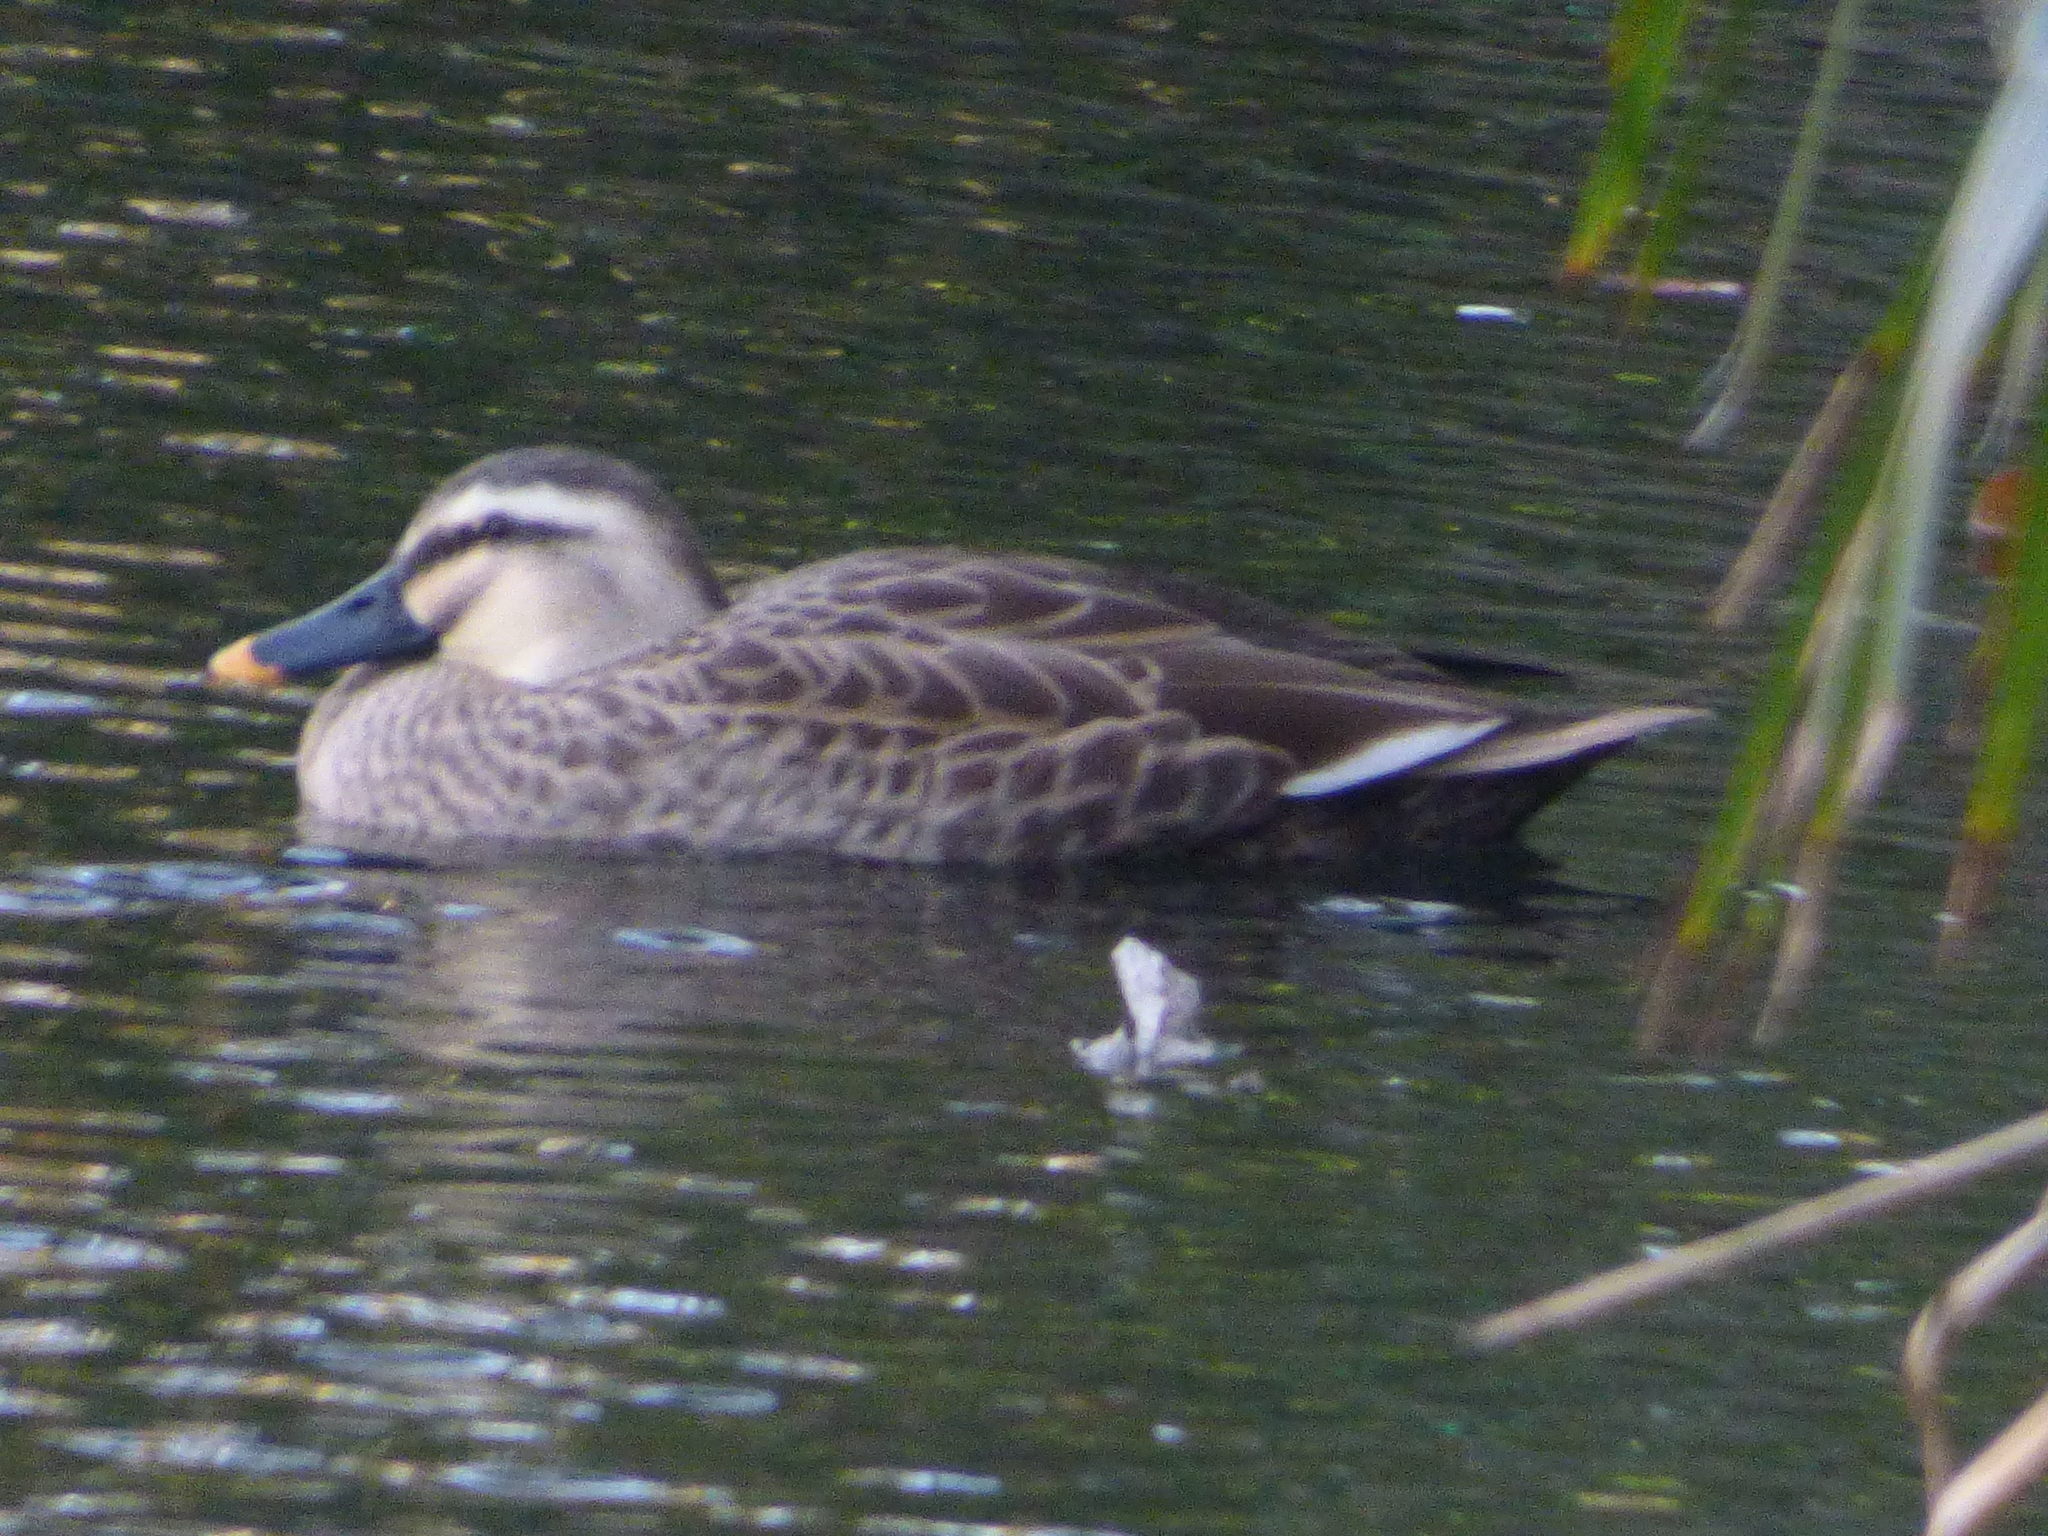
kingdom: Animalia
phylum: Chordata
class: Aves
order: Anseriformes
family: Anatidae
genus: Anas
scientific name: Anas zonorhyncha
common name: Eastern spot-billed duck
